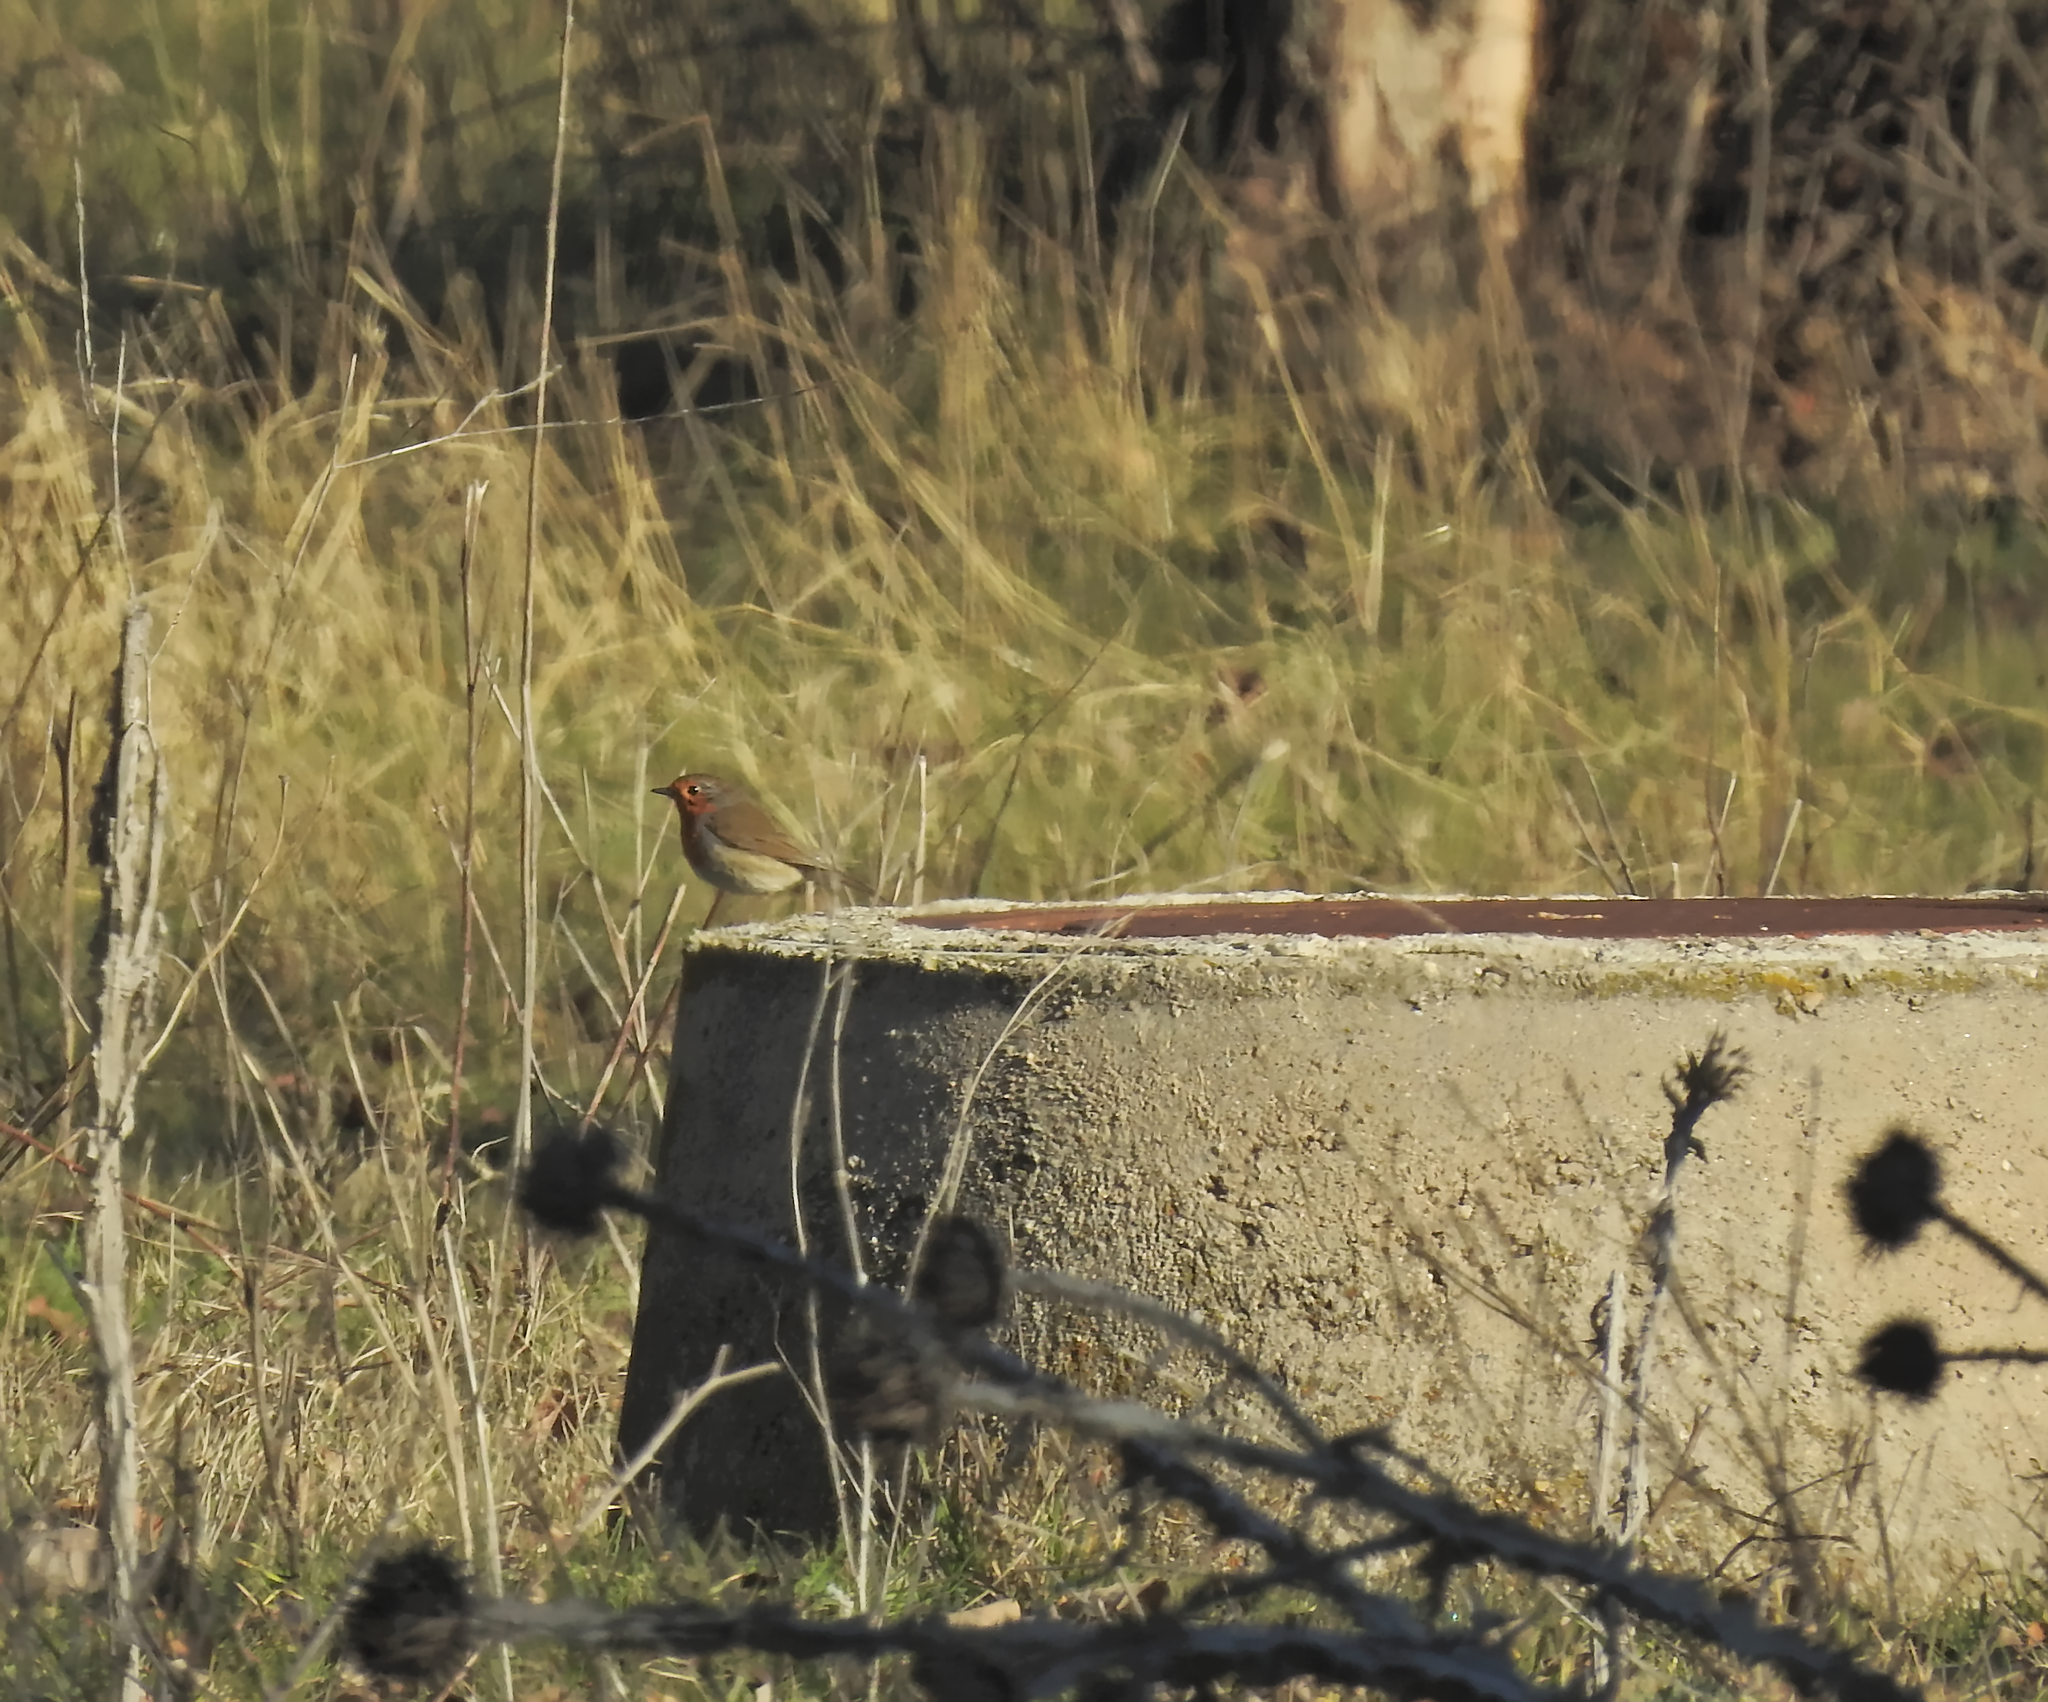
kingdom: Animalia
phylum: Chordata
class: Aves
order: Passeriformes
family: Muscicapidae
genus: Erithacus
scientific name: Erithacus rubecula
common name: European robin
